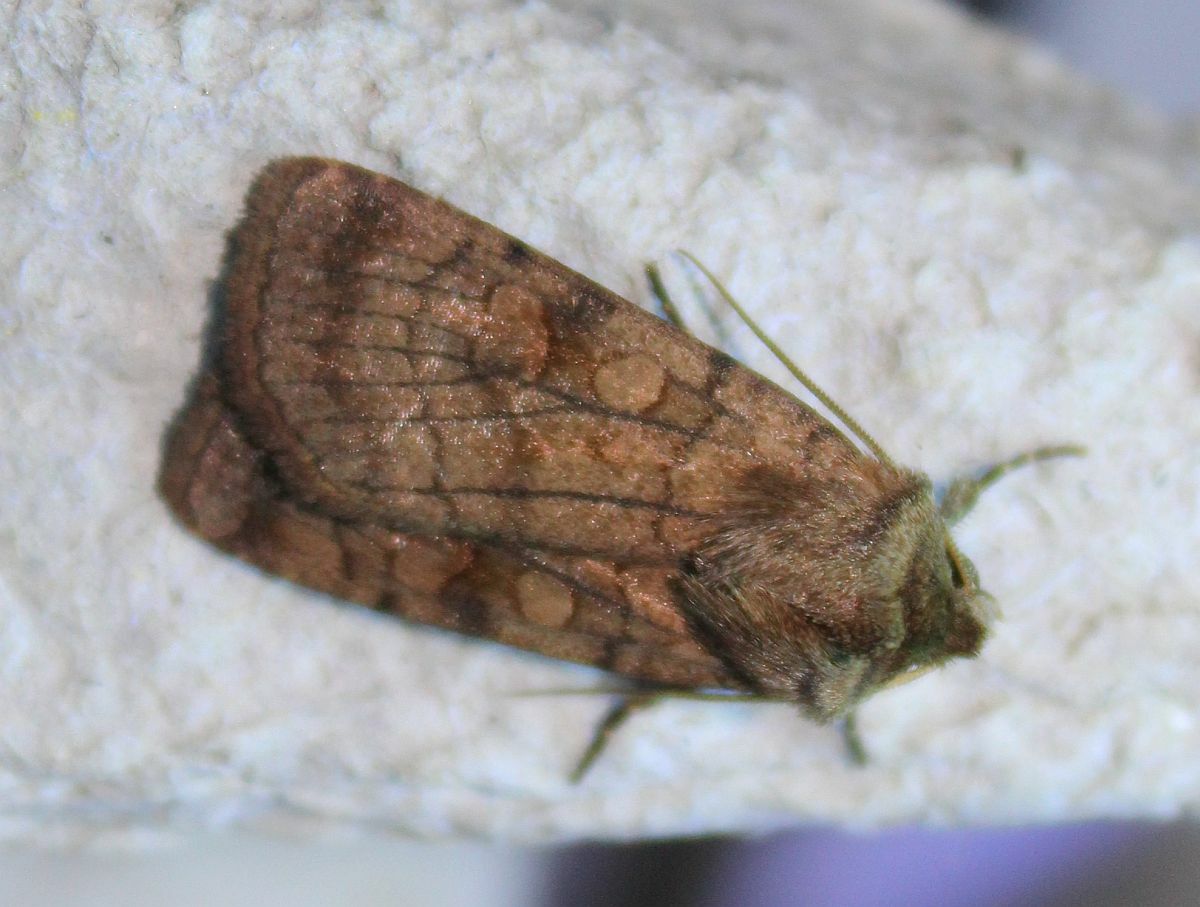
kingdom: Animalia
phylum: Arthropoda
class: Insecta
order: Lepidoptera
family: Noctuidae
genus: Xestia
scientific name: Xestia sexstrigata
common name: Six-striped rustic
